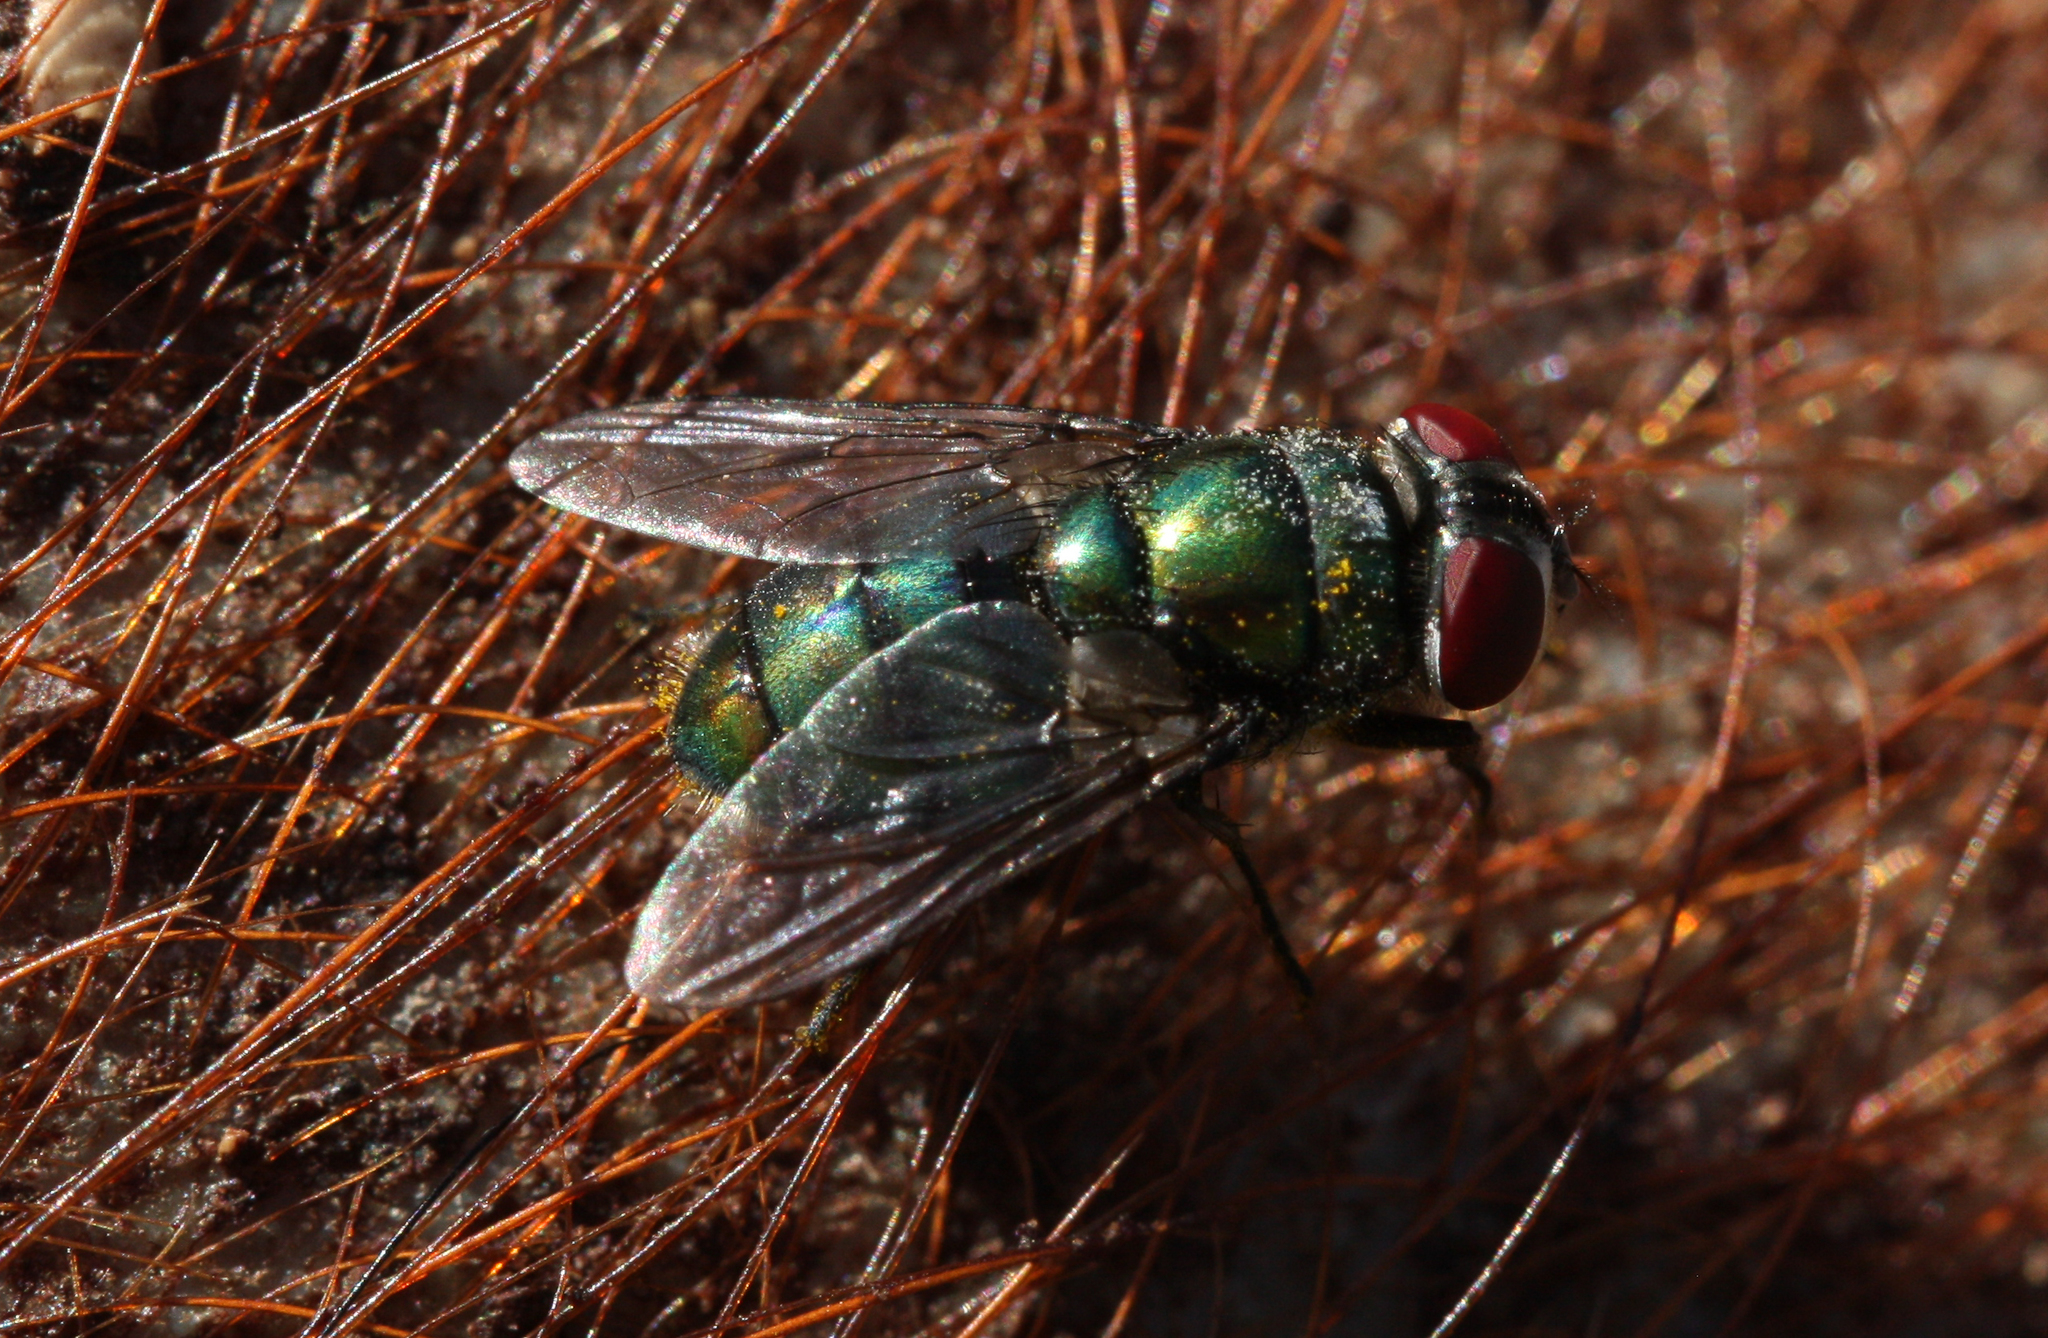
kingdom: Animalia
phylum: Arthropoda
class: Insecta
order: Diptera
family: Calliphoridae
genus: Chrysomya
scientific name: Chrysomya rufifacies
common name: Blow fly
